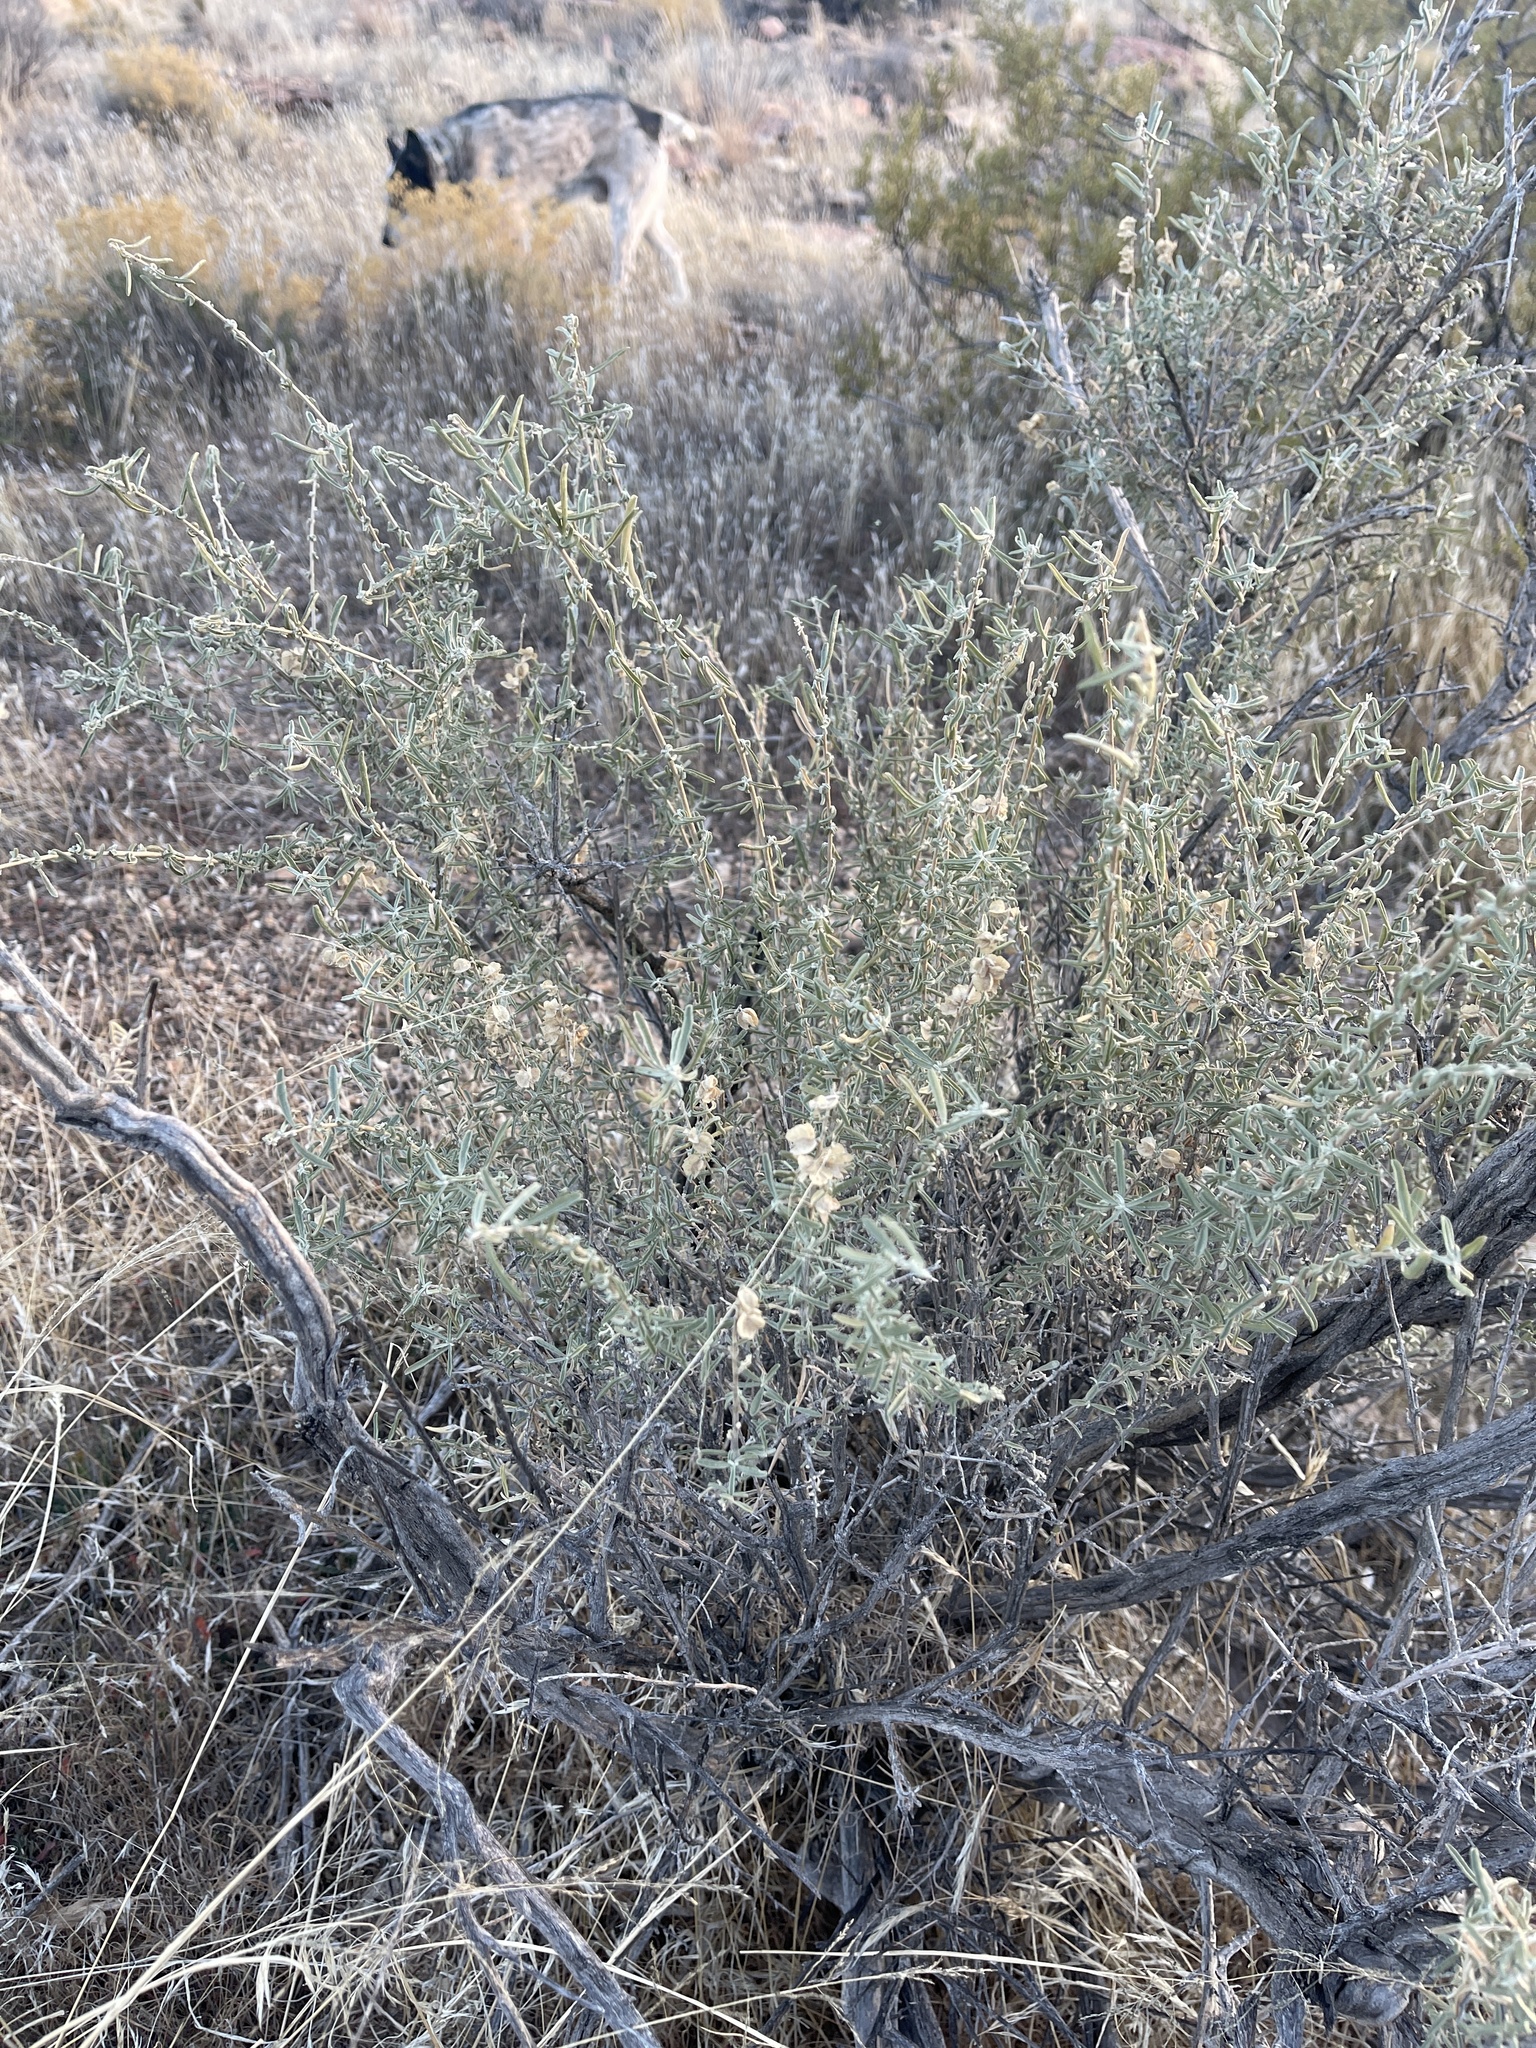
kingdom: Plantae
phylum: Tracheophyta
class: Magnoliopsida
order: Caryophyllales
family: Amaranthaceae
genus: Atriplex
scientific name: Atriplex canescens
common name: Four-wing saltbush
